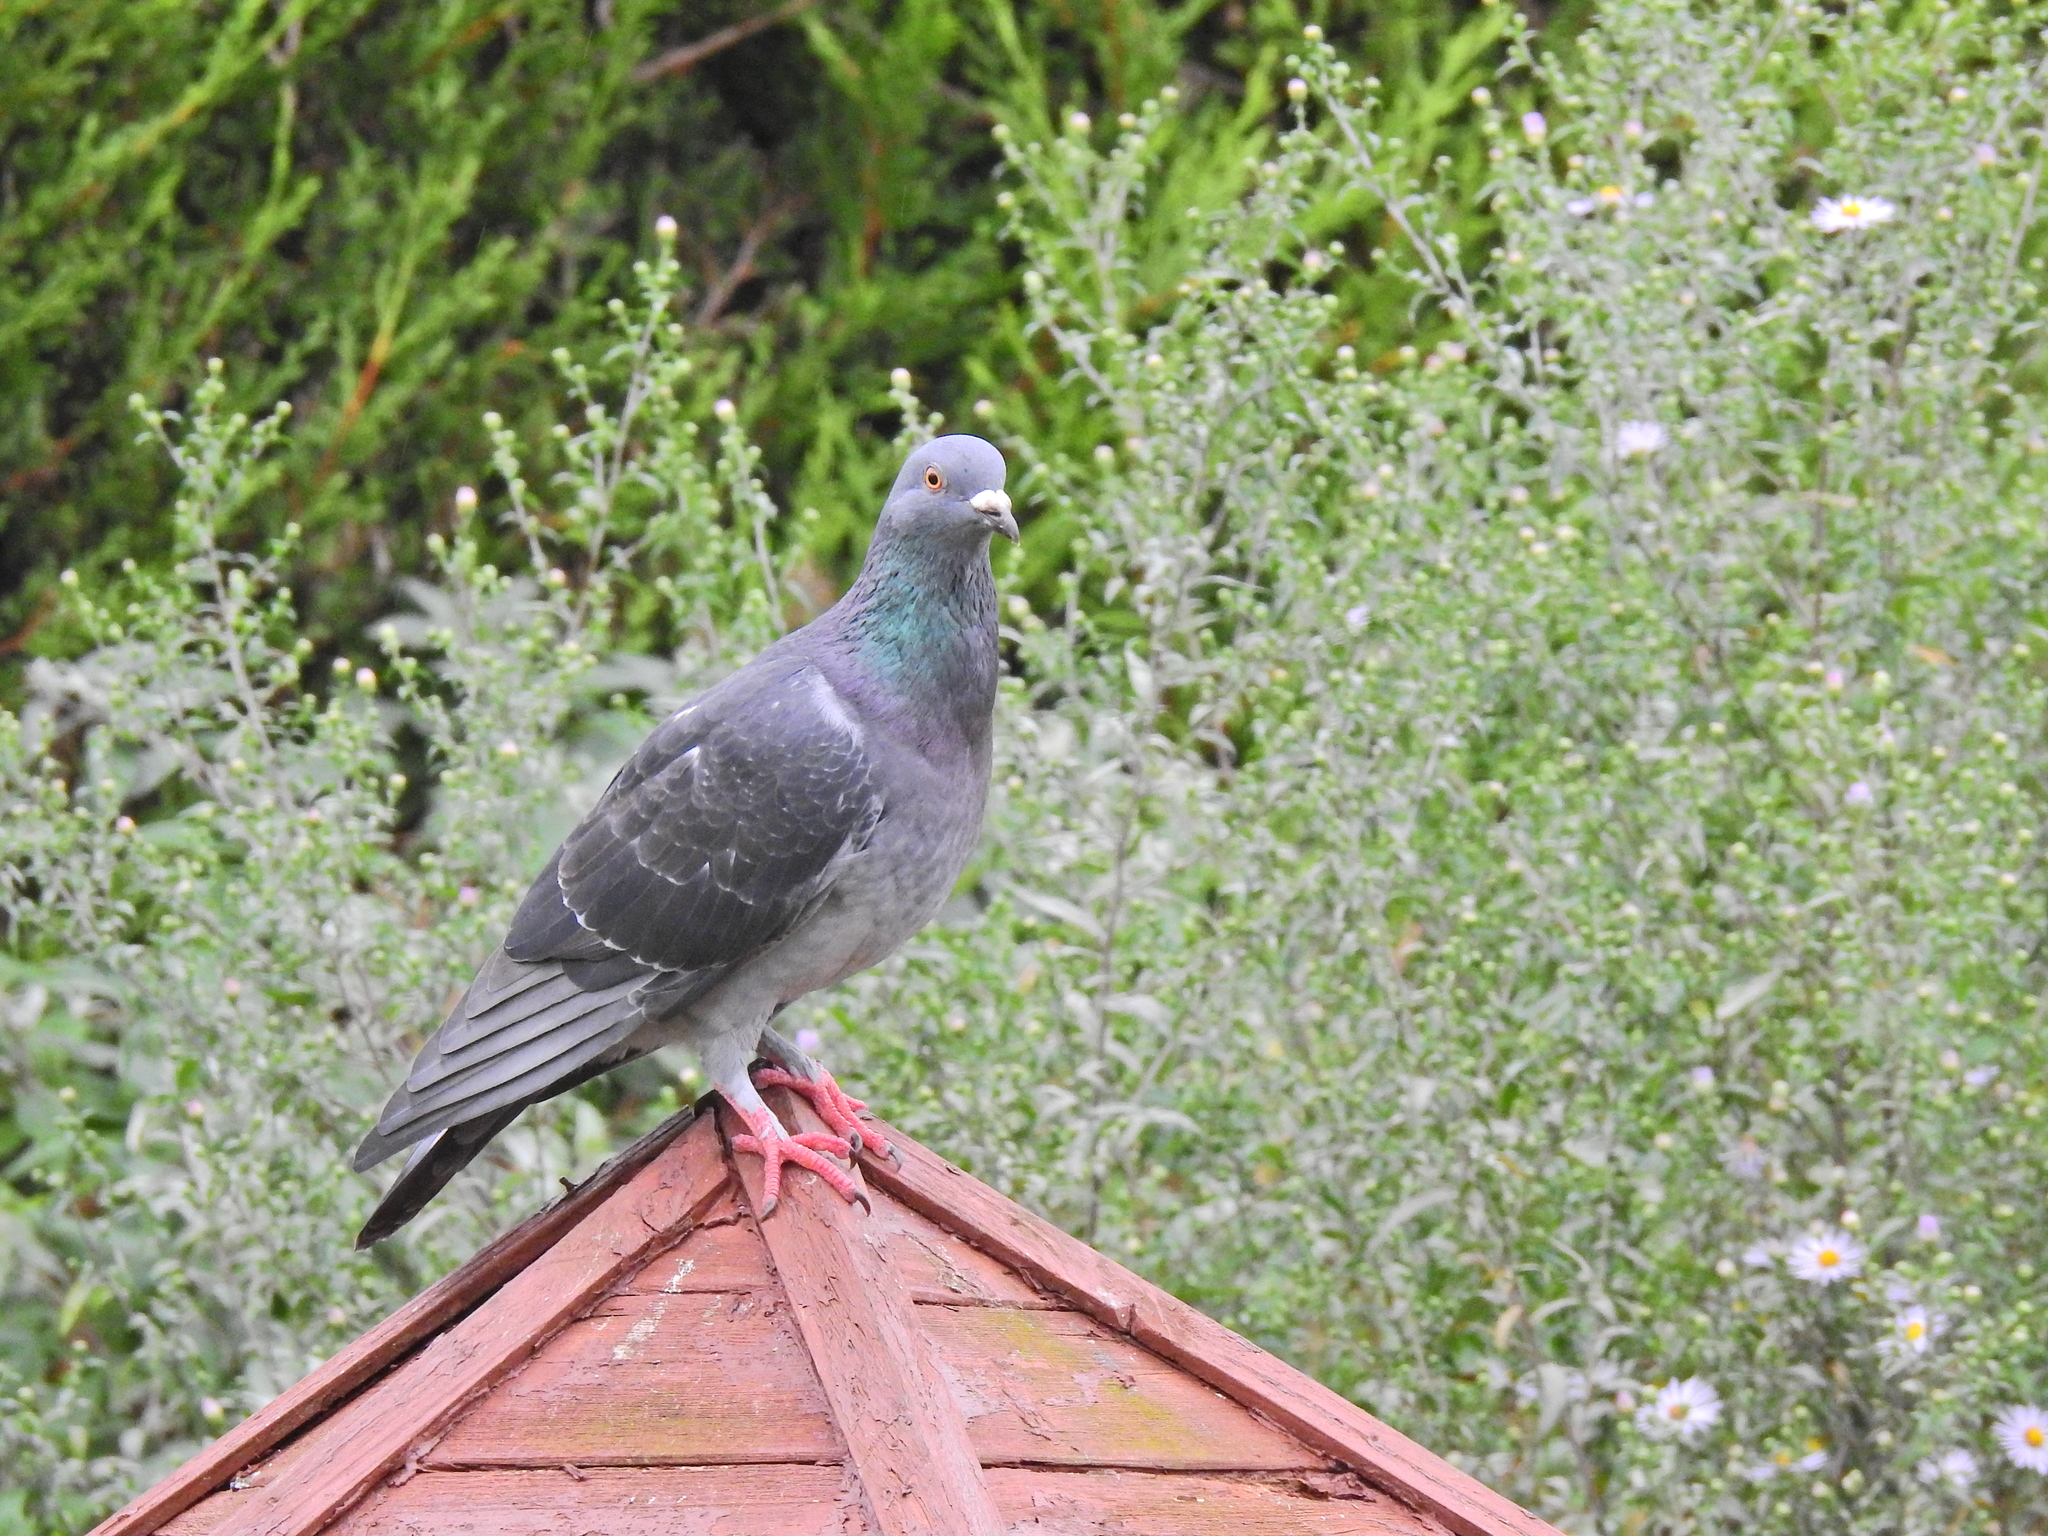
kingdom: Animalia
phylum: Chordata
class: Aves
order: Columbiformes
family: Columbidae
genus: Columba
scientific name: Columba livia
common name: Rock pigeon
